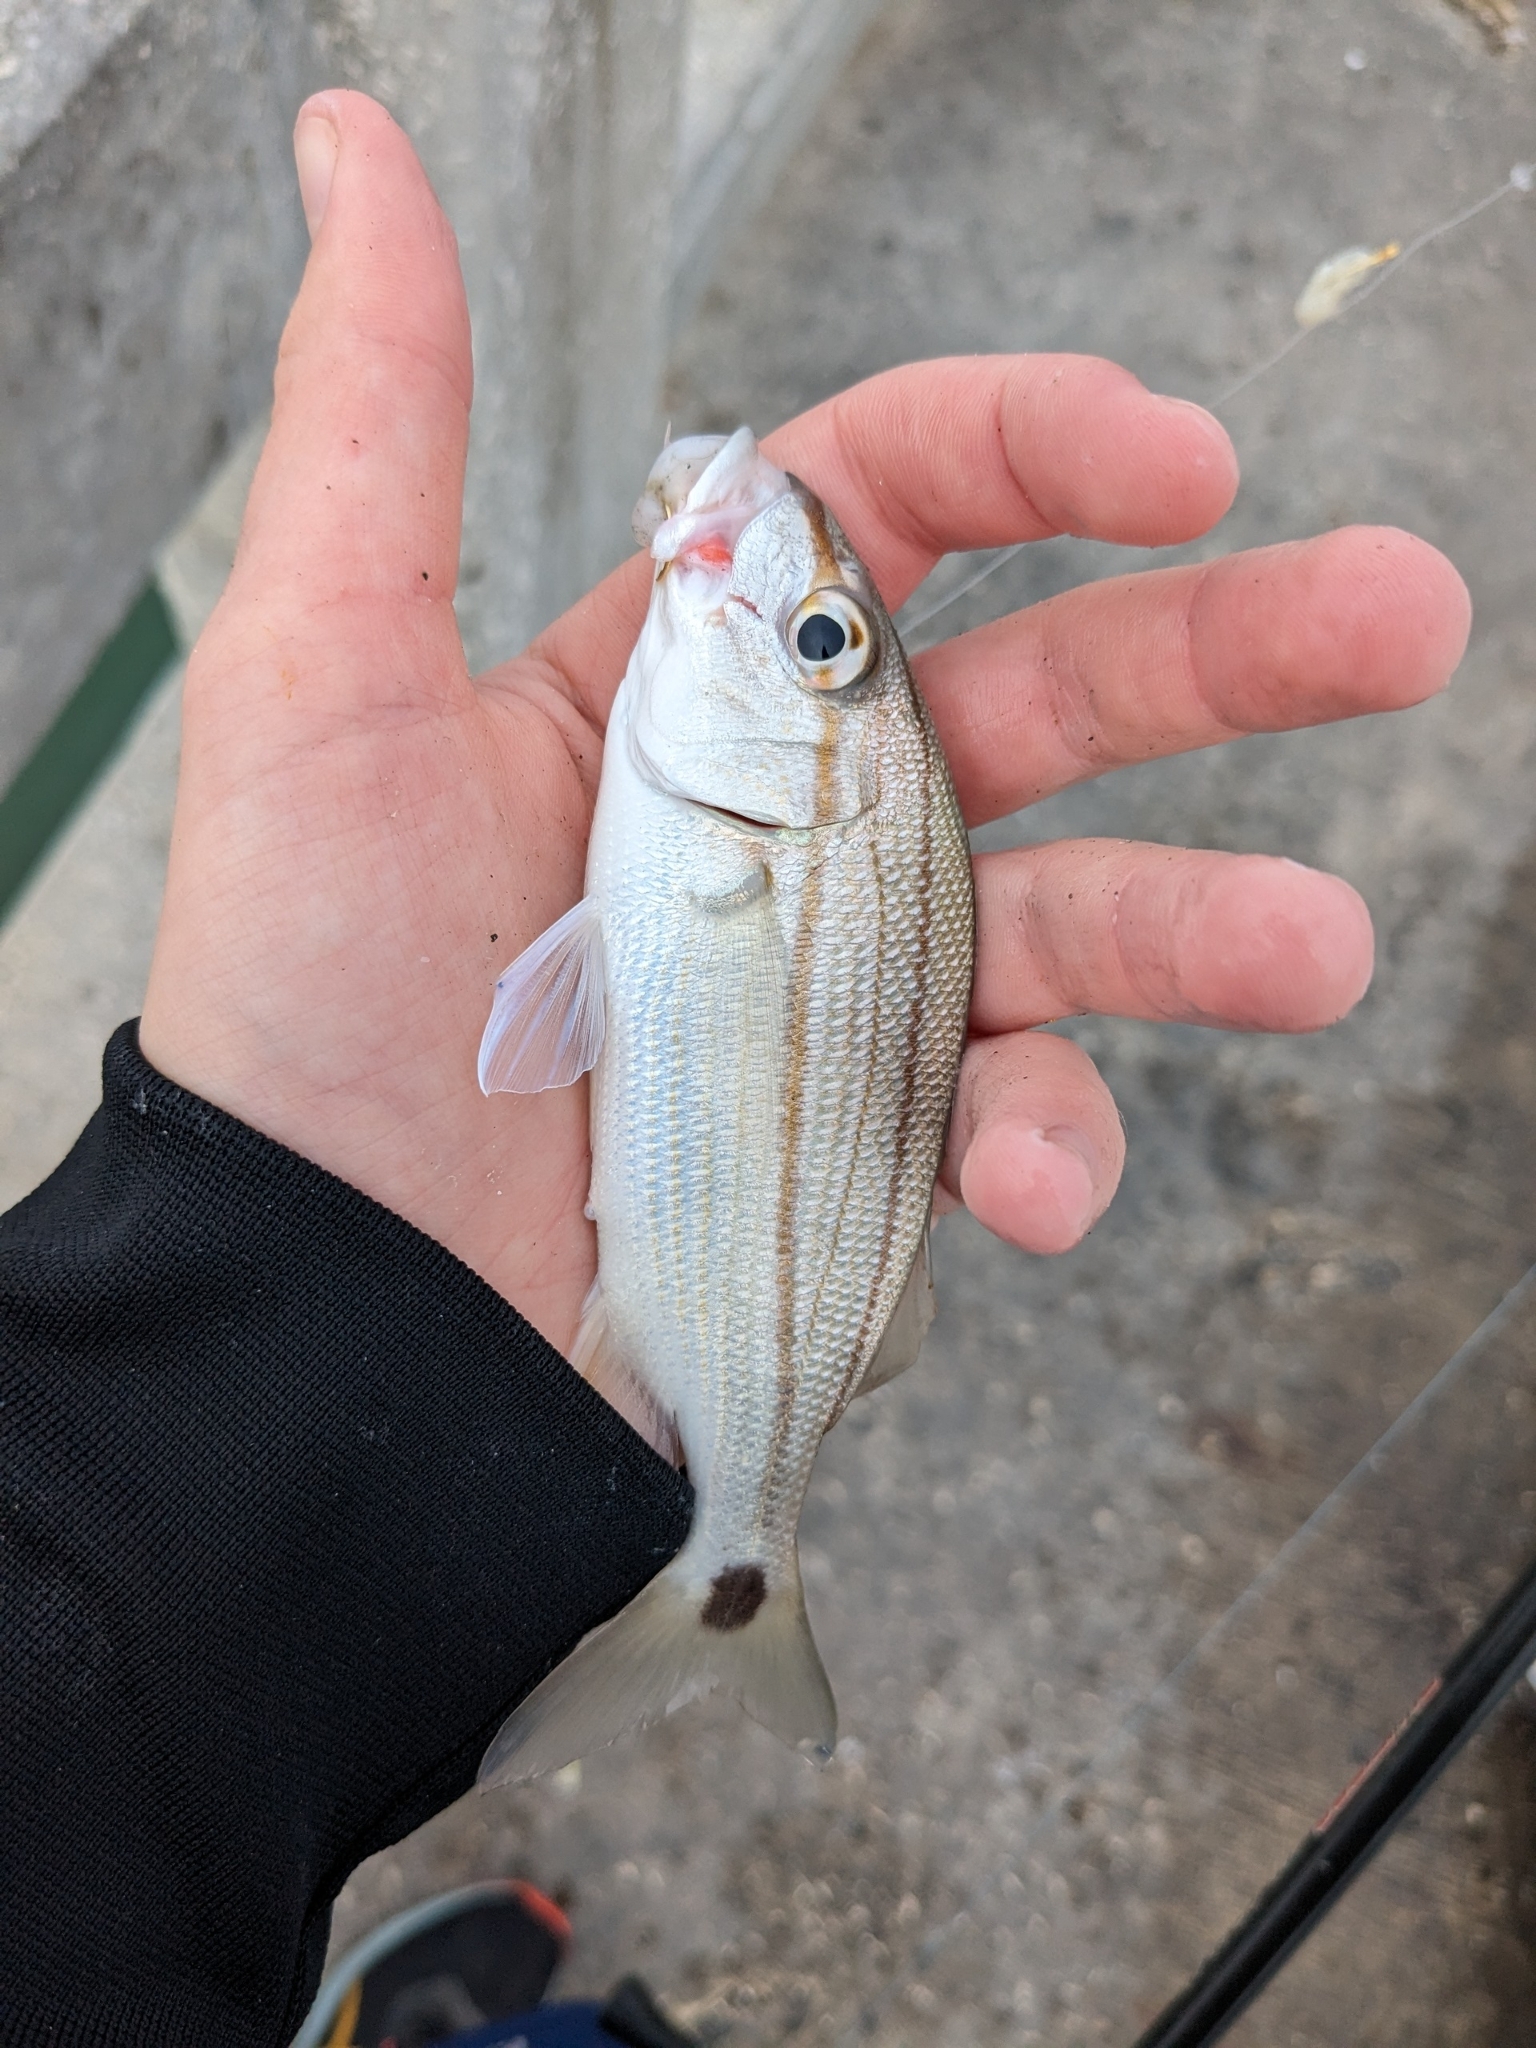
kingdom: Animalia
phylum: Chordata
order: Perciformes
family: Haemulidae
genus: Haemulon
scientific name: Haemulon aurolineatum
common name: Tomtate
